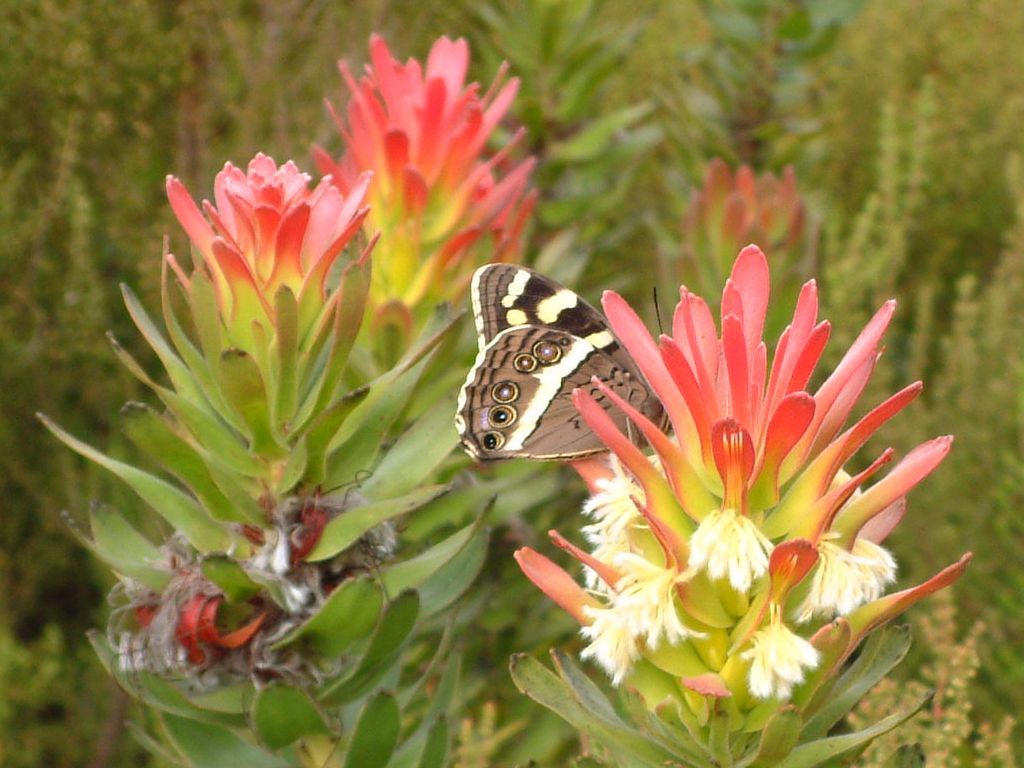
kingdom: Animalia
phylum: Arthropoda
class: Insecta
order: Lepidoptera
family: Nymphalidae
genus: Meneris
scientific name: Meneris Aeropetes tulbaghia
